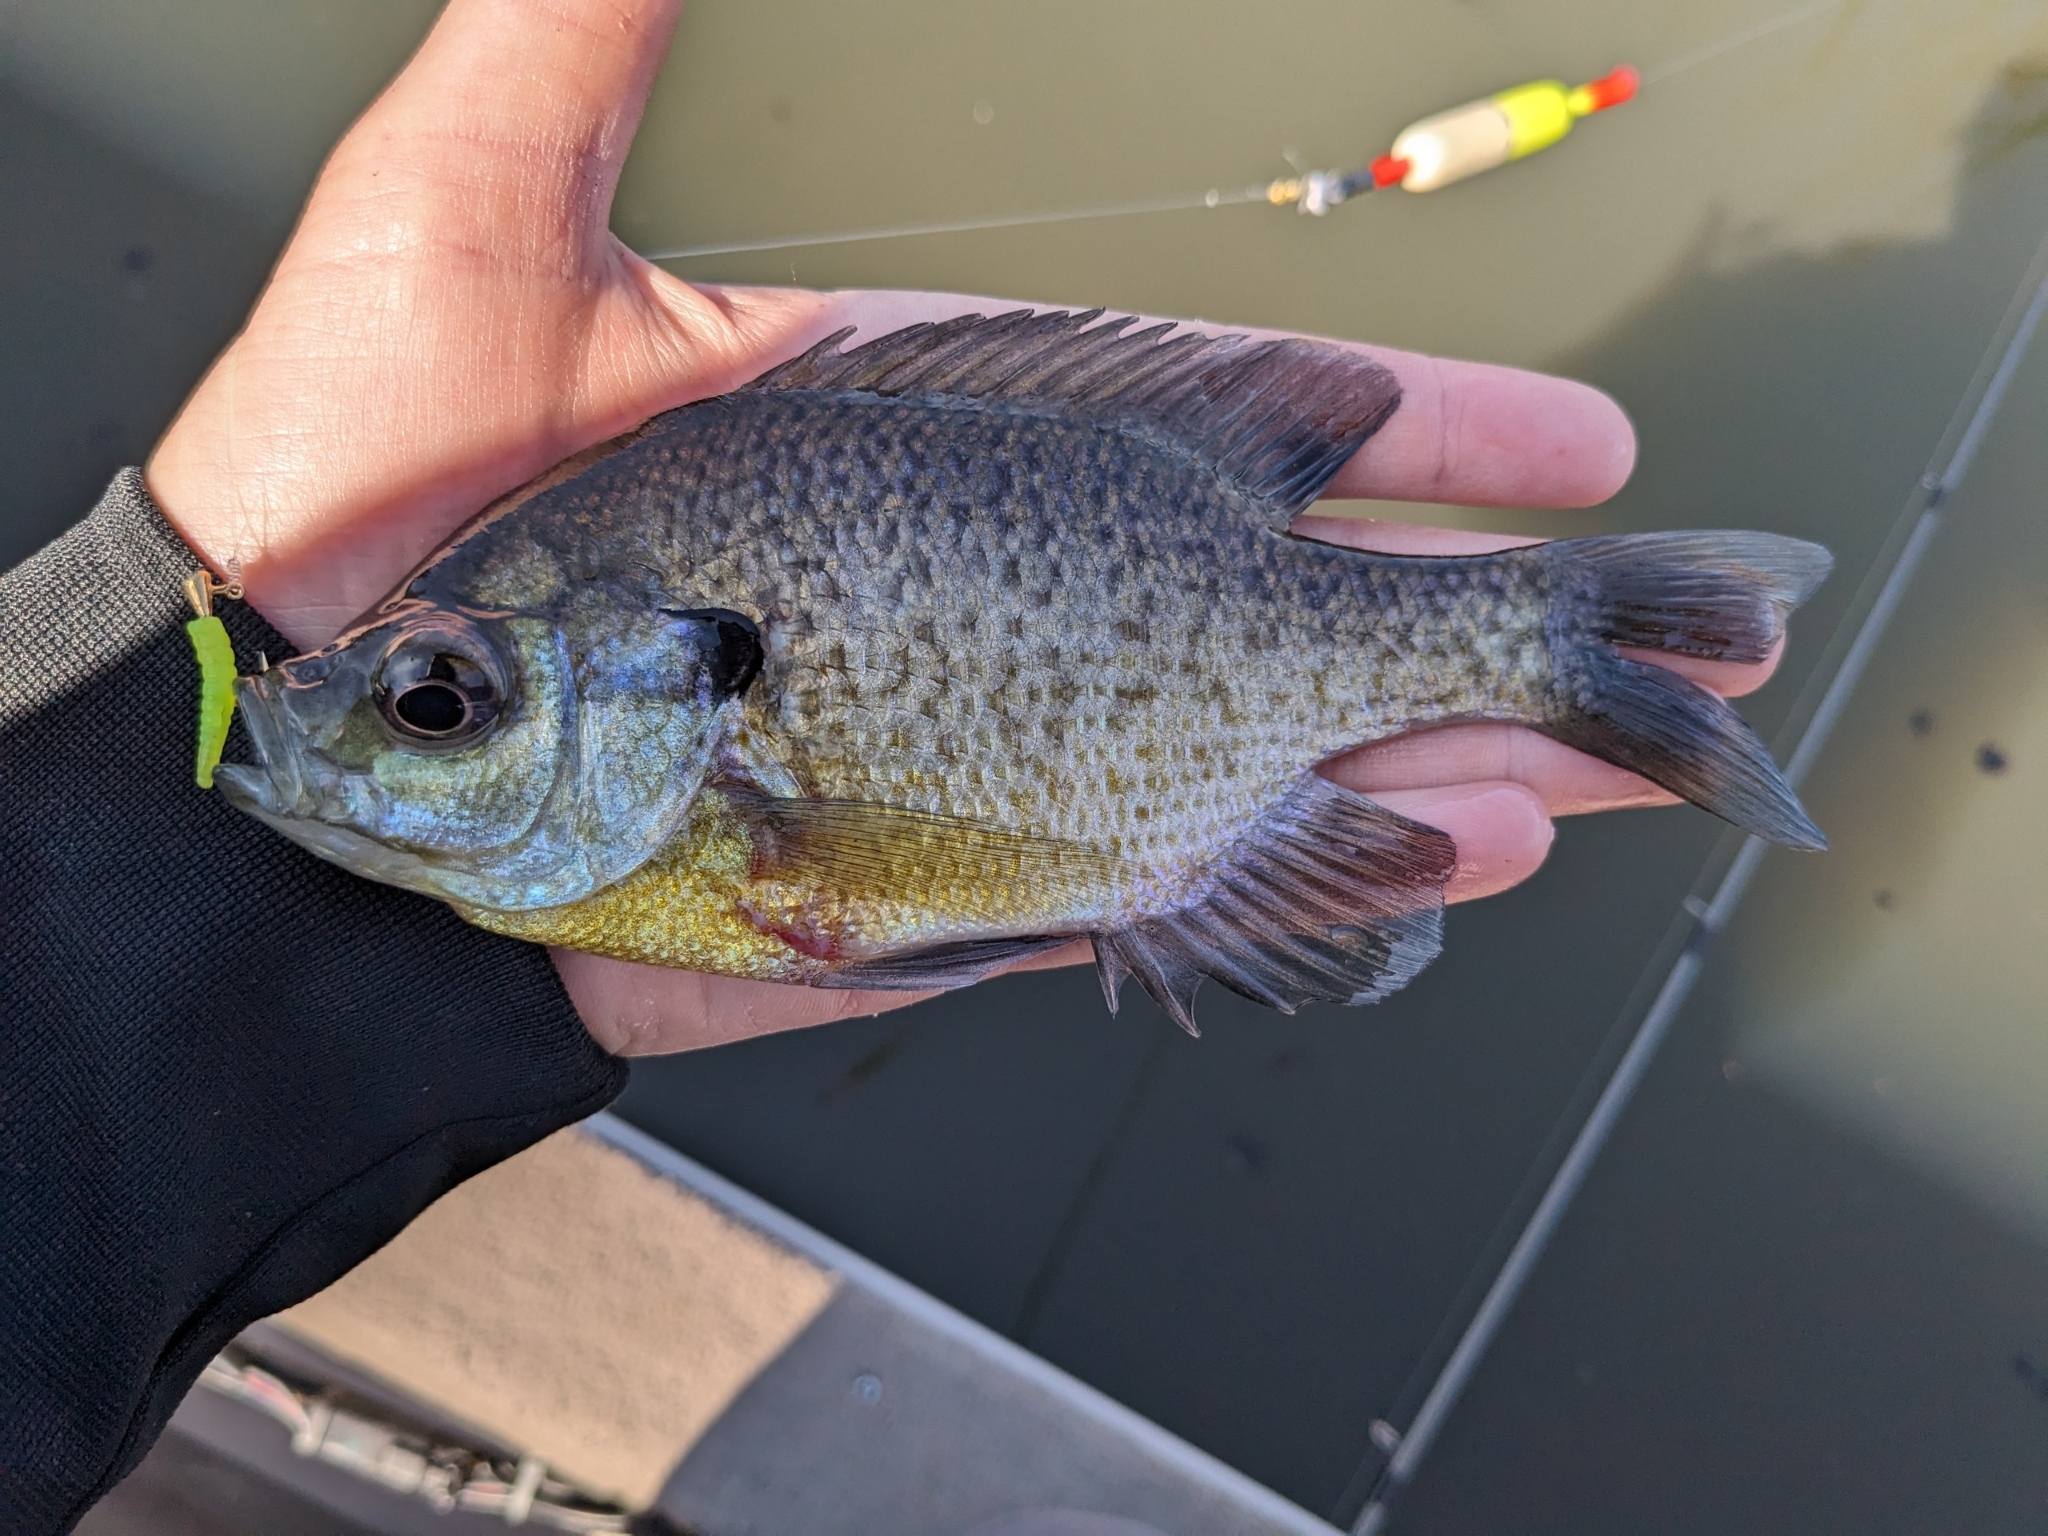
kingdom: Animalia
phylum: Chordata
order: Perciformes
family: Centrarchidae
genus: Lepomis
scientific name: Lepomis macrochirus
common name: Bluegill
